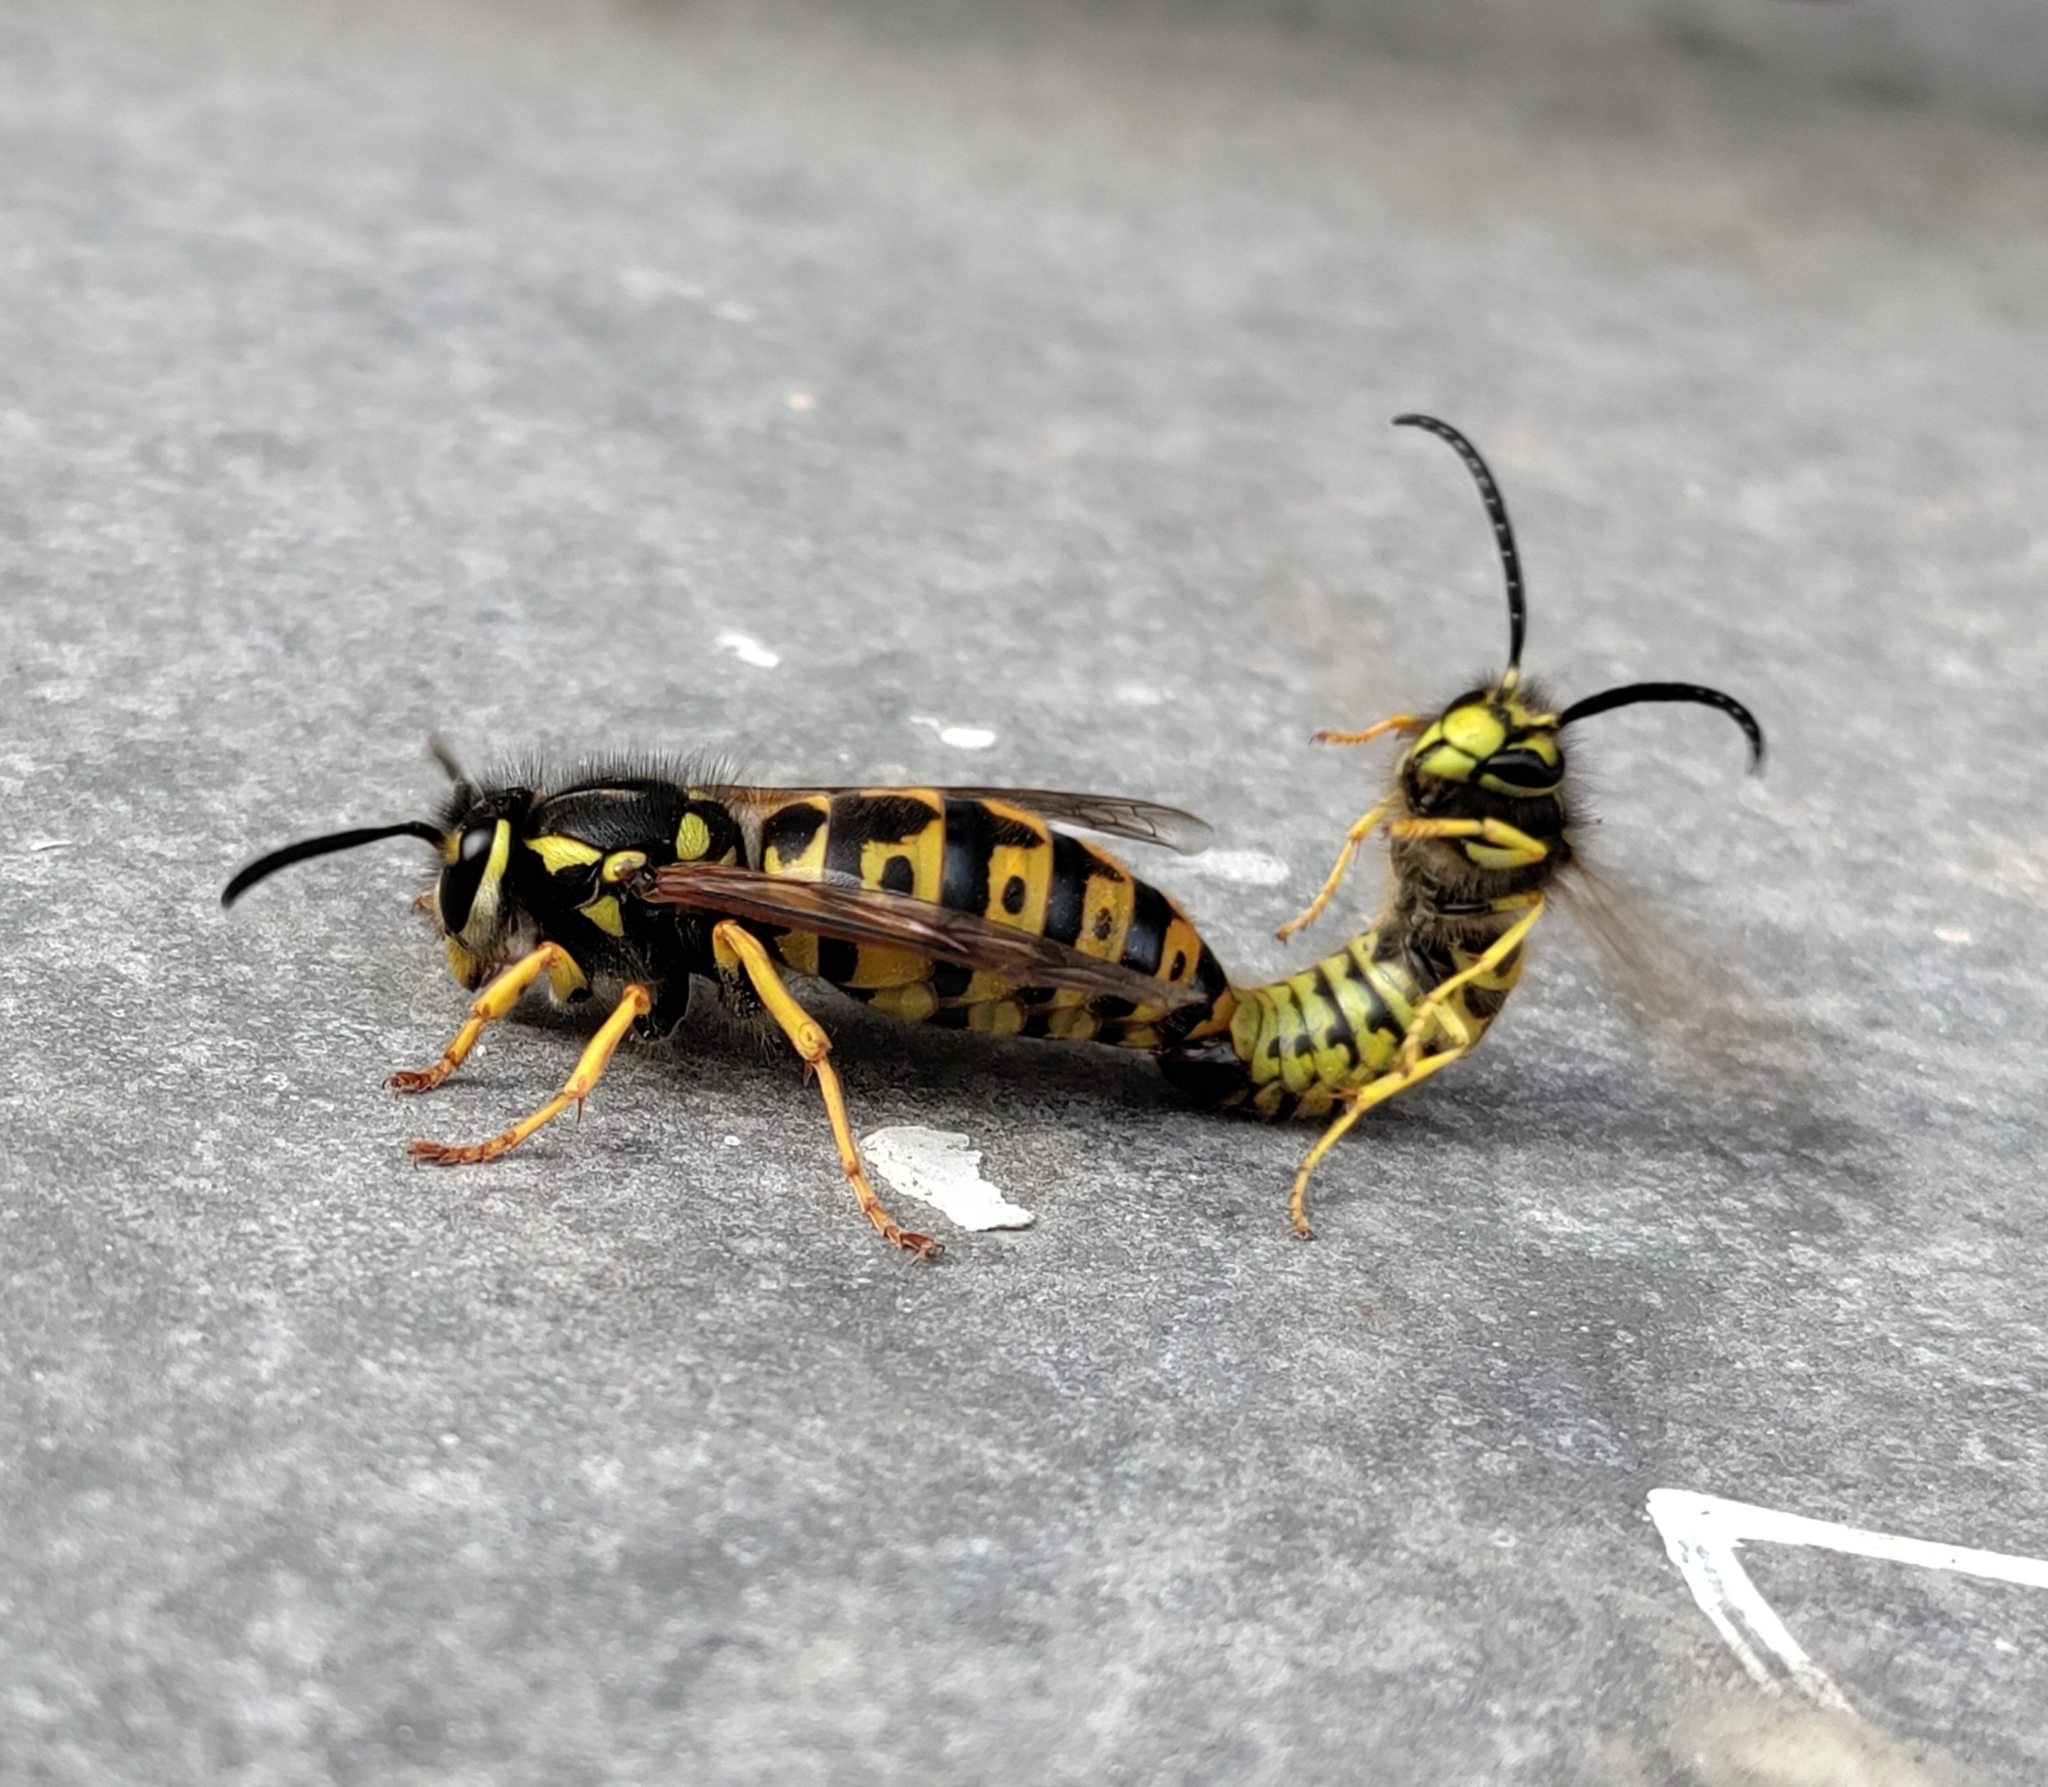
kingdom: Animalia
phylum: Arthropoda
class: Insecta
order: Hymenoptera
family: Vespidae
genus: Vespula
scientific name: Vespula germanica
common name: German wasp
